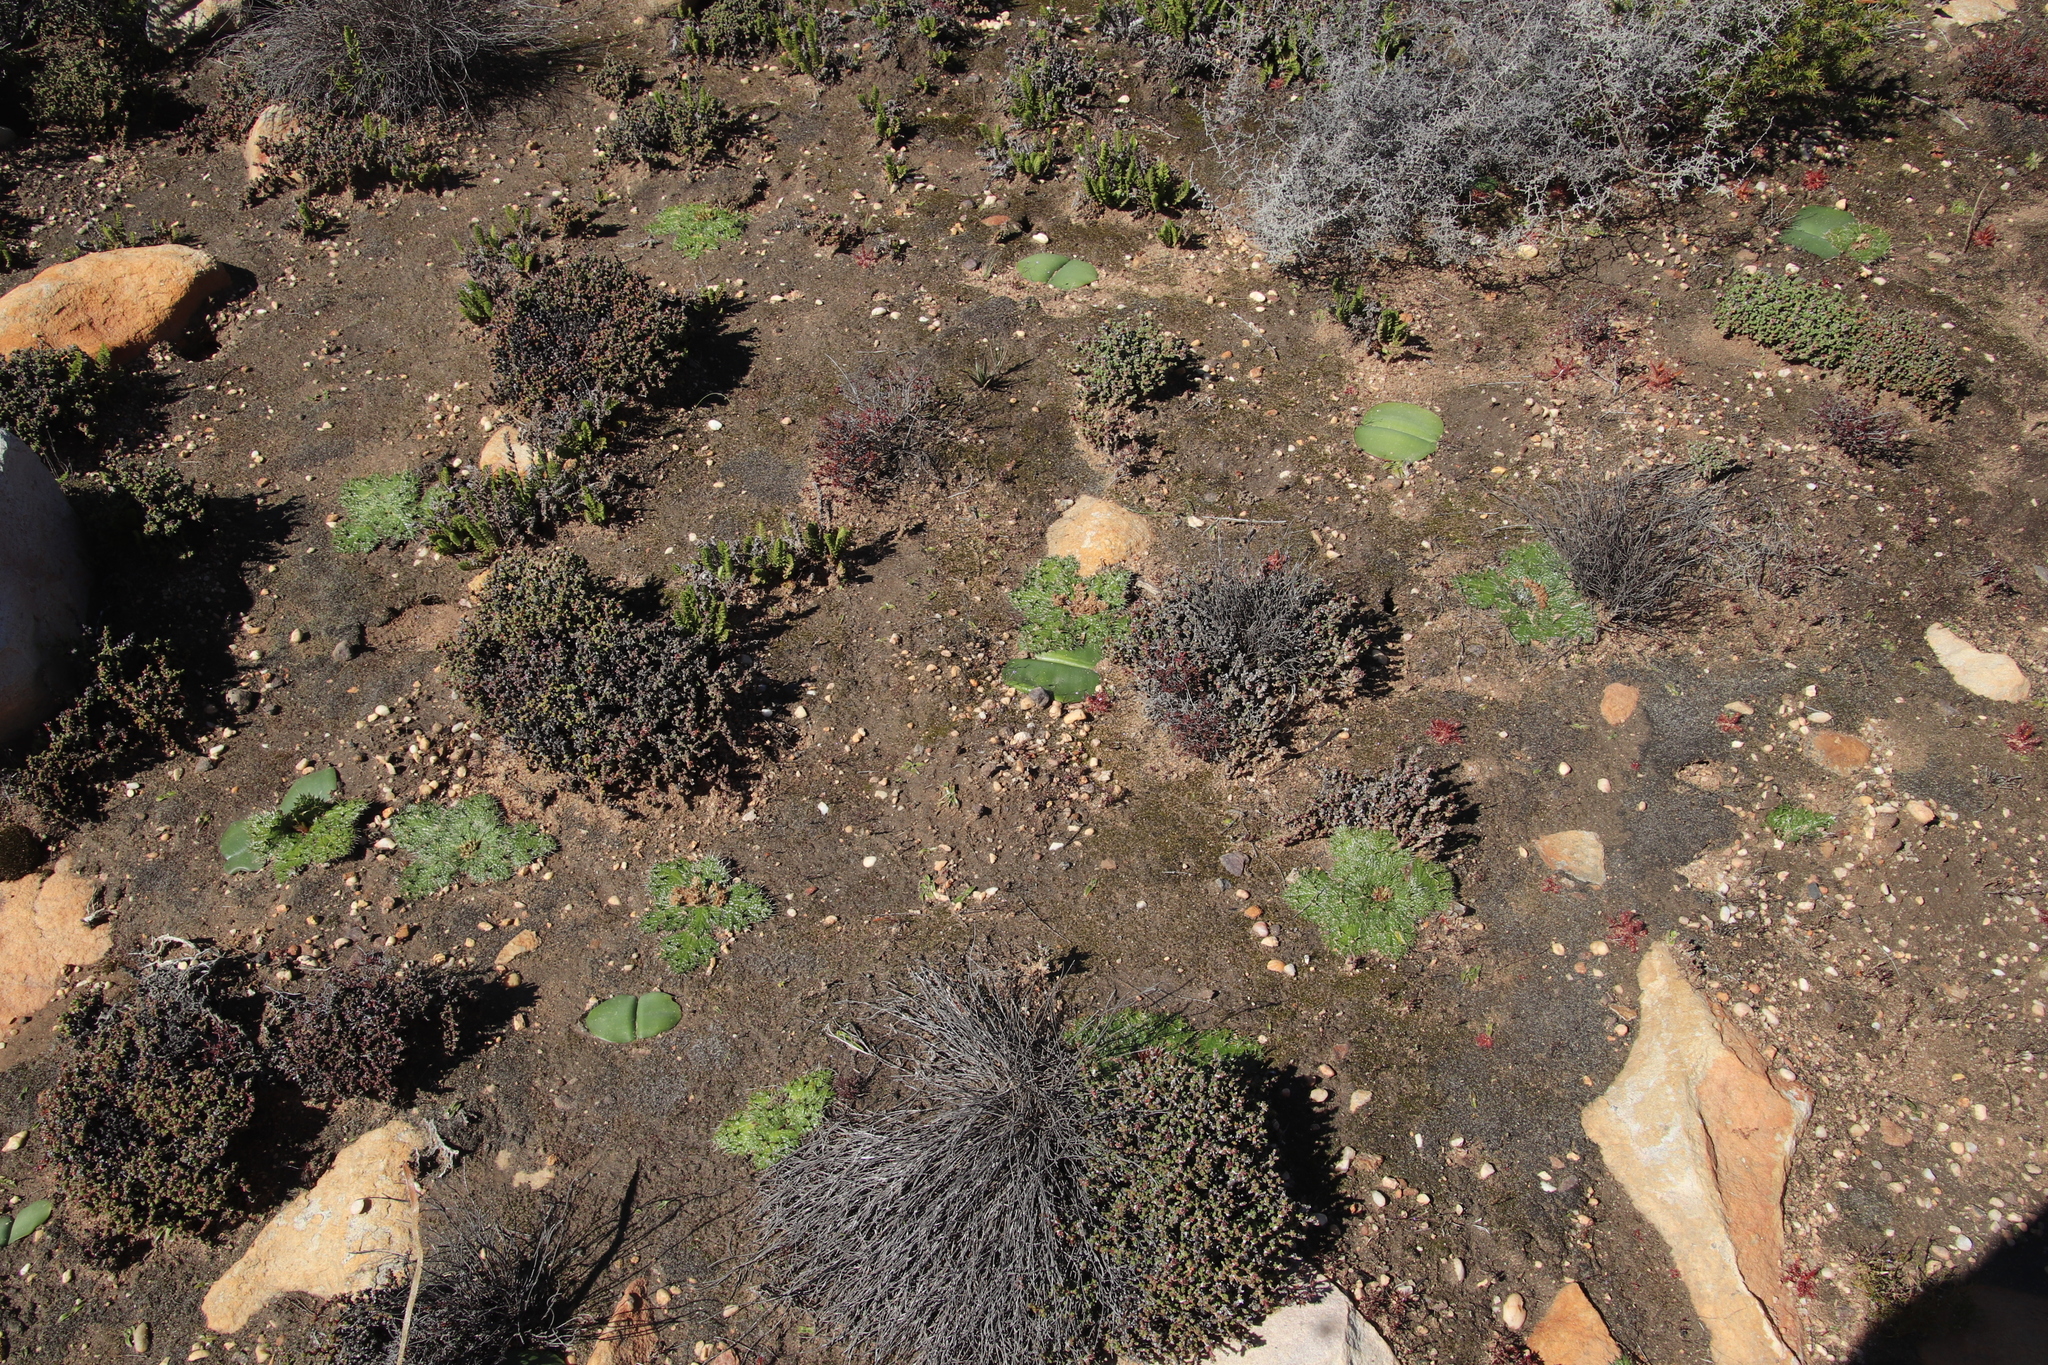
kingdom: Plantae
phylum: Tracheophyta
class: Liliopsida
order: Asparagales
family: Amaryllidaceae
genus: Haemanthus
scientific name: Haemanthus sanguineus
